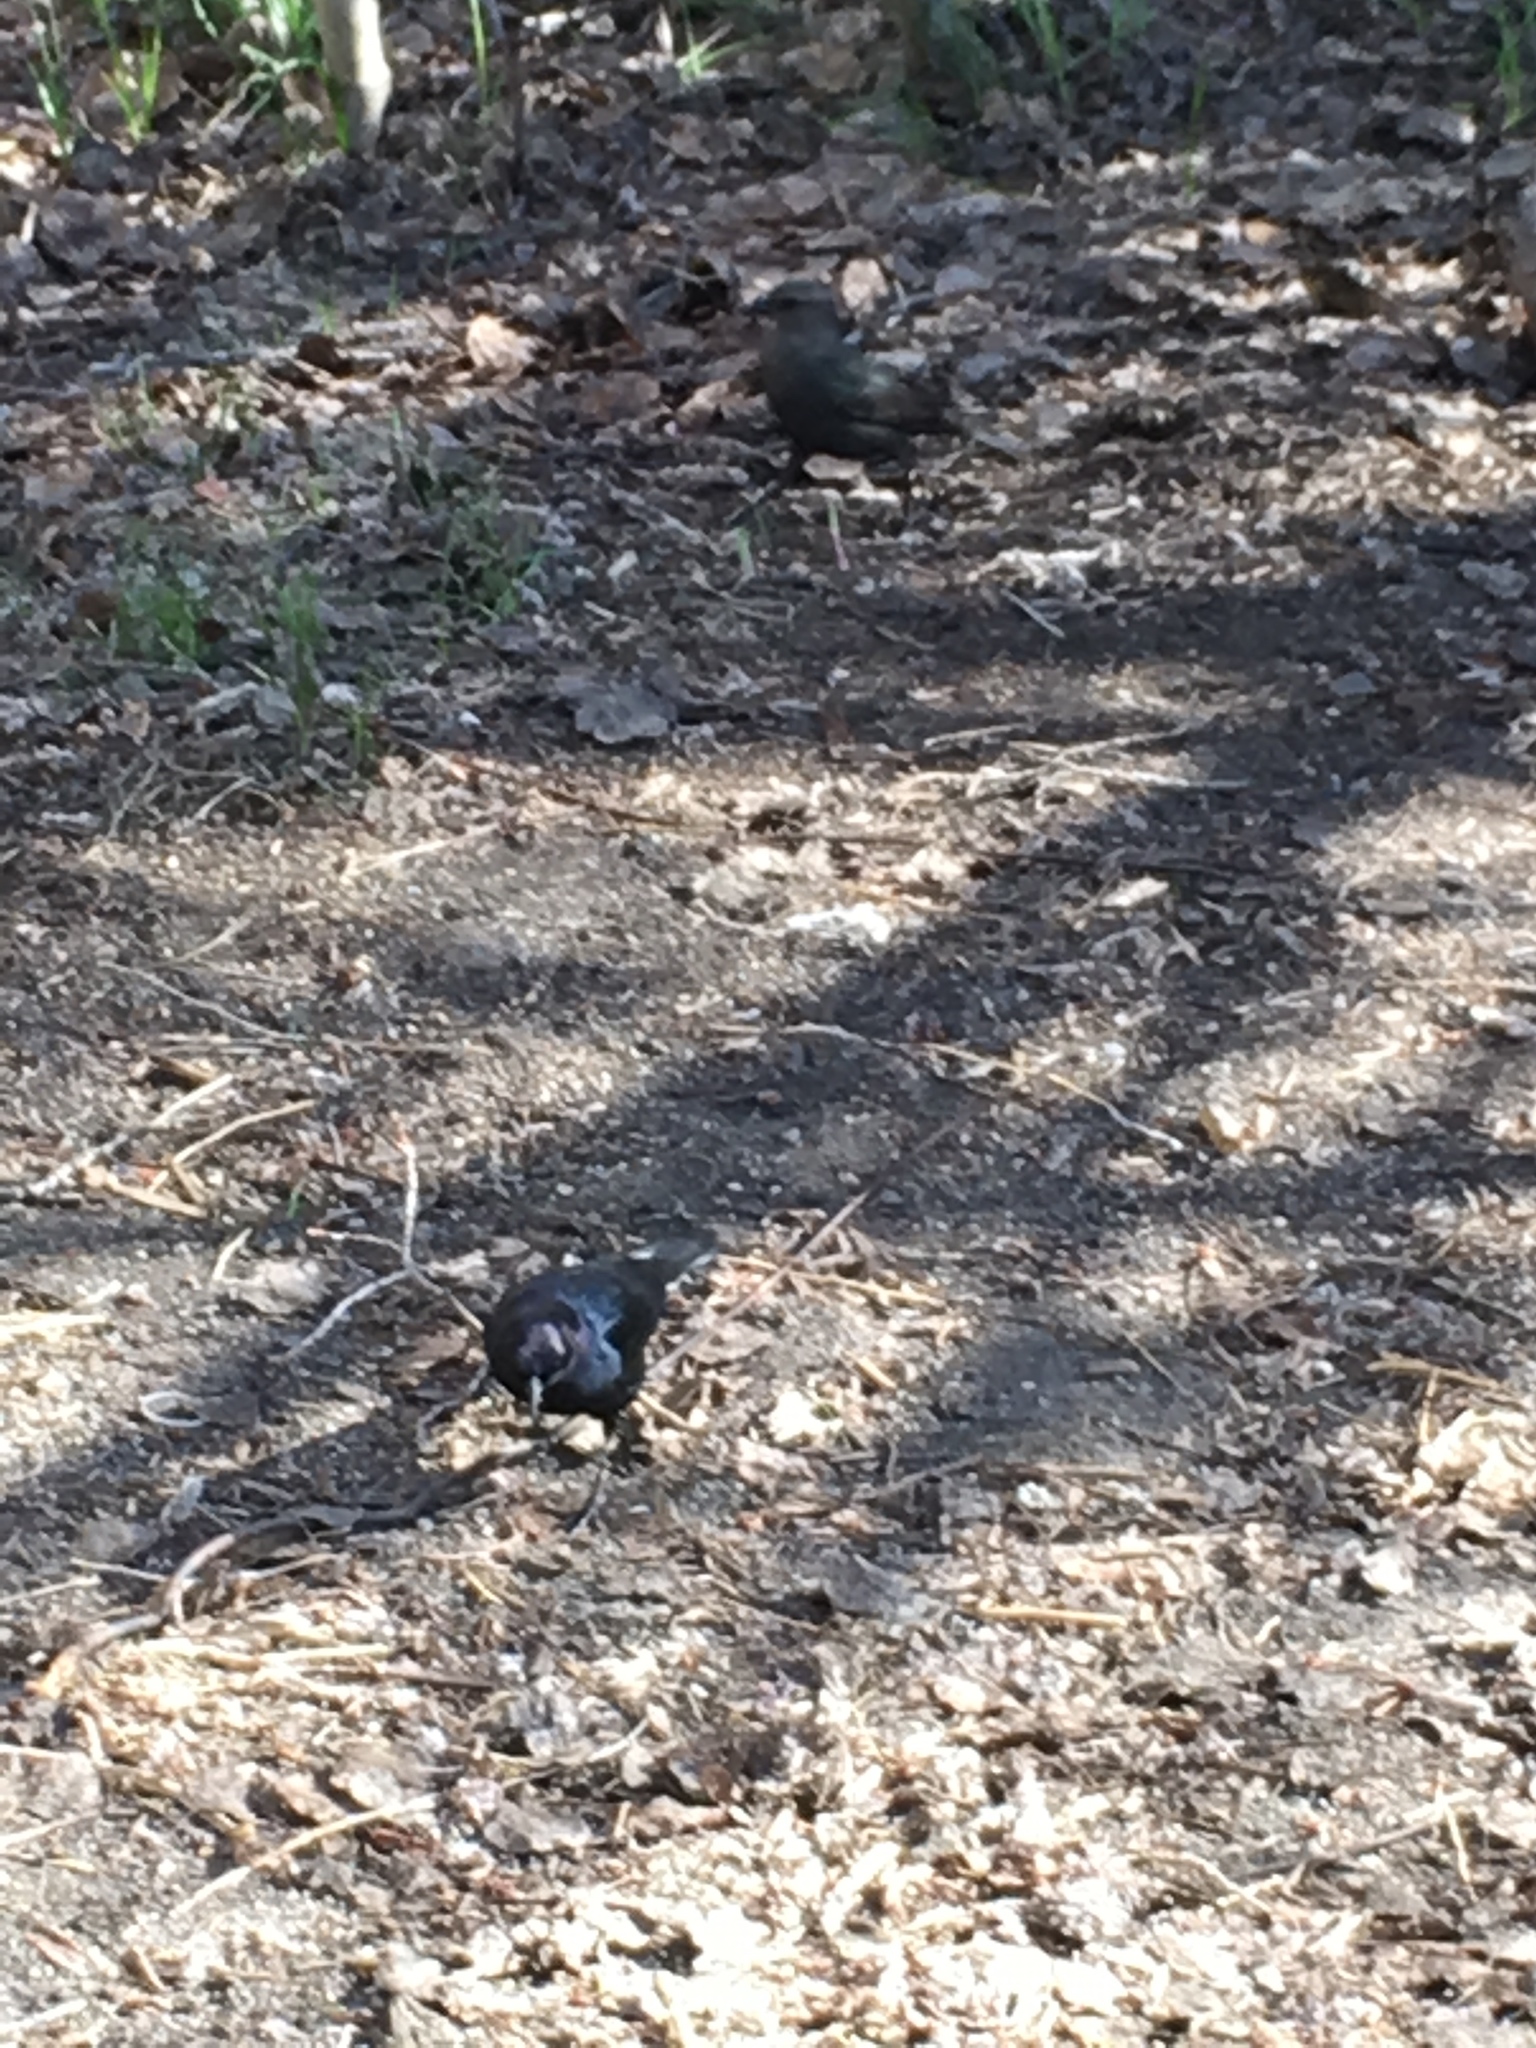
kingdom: Animalia
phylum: Chordata
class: Aves
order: Passeriformes
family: Icteridae
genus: Euphagus
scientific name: Euphagus cyanocephalus
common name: Brewer's blackbird
